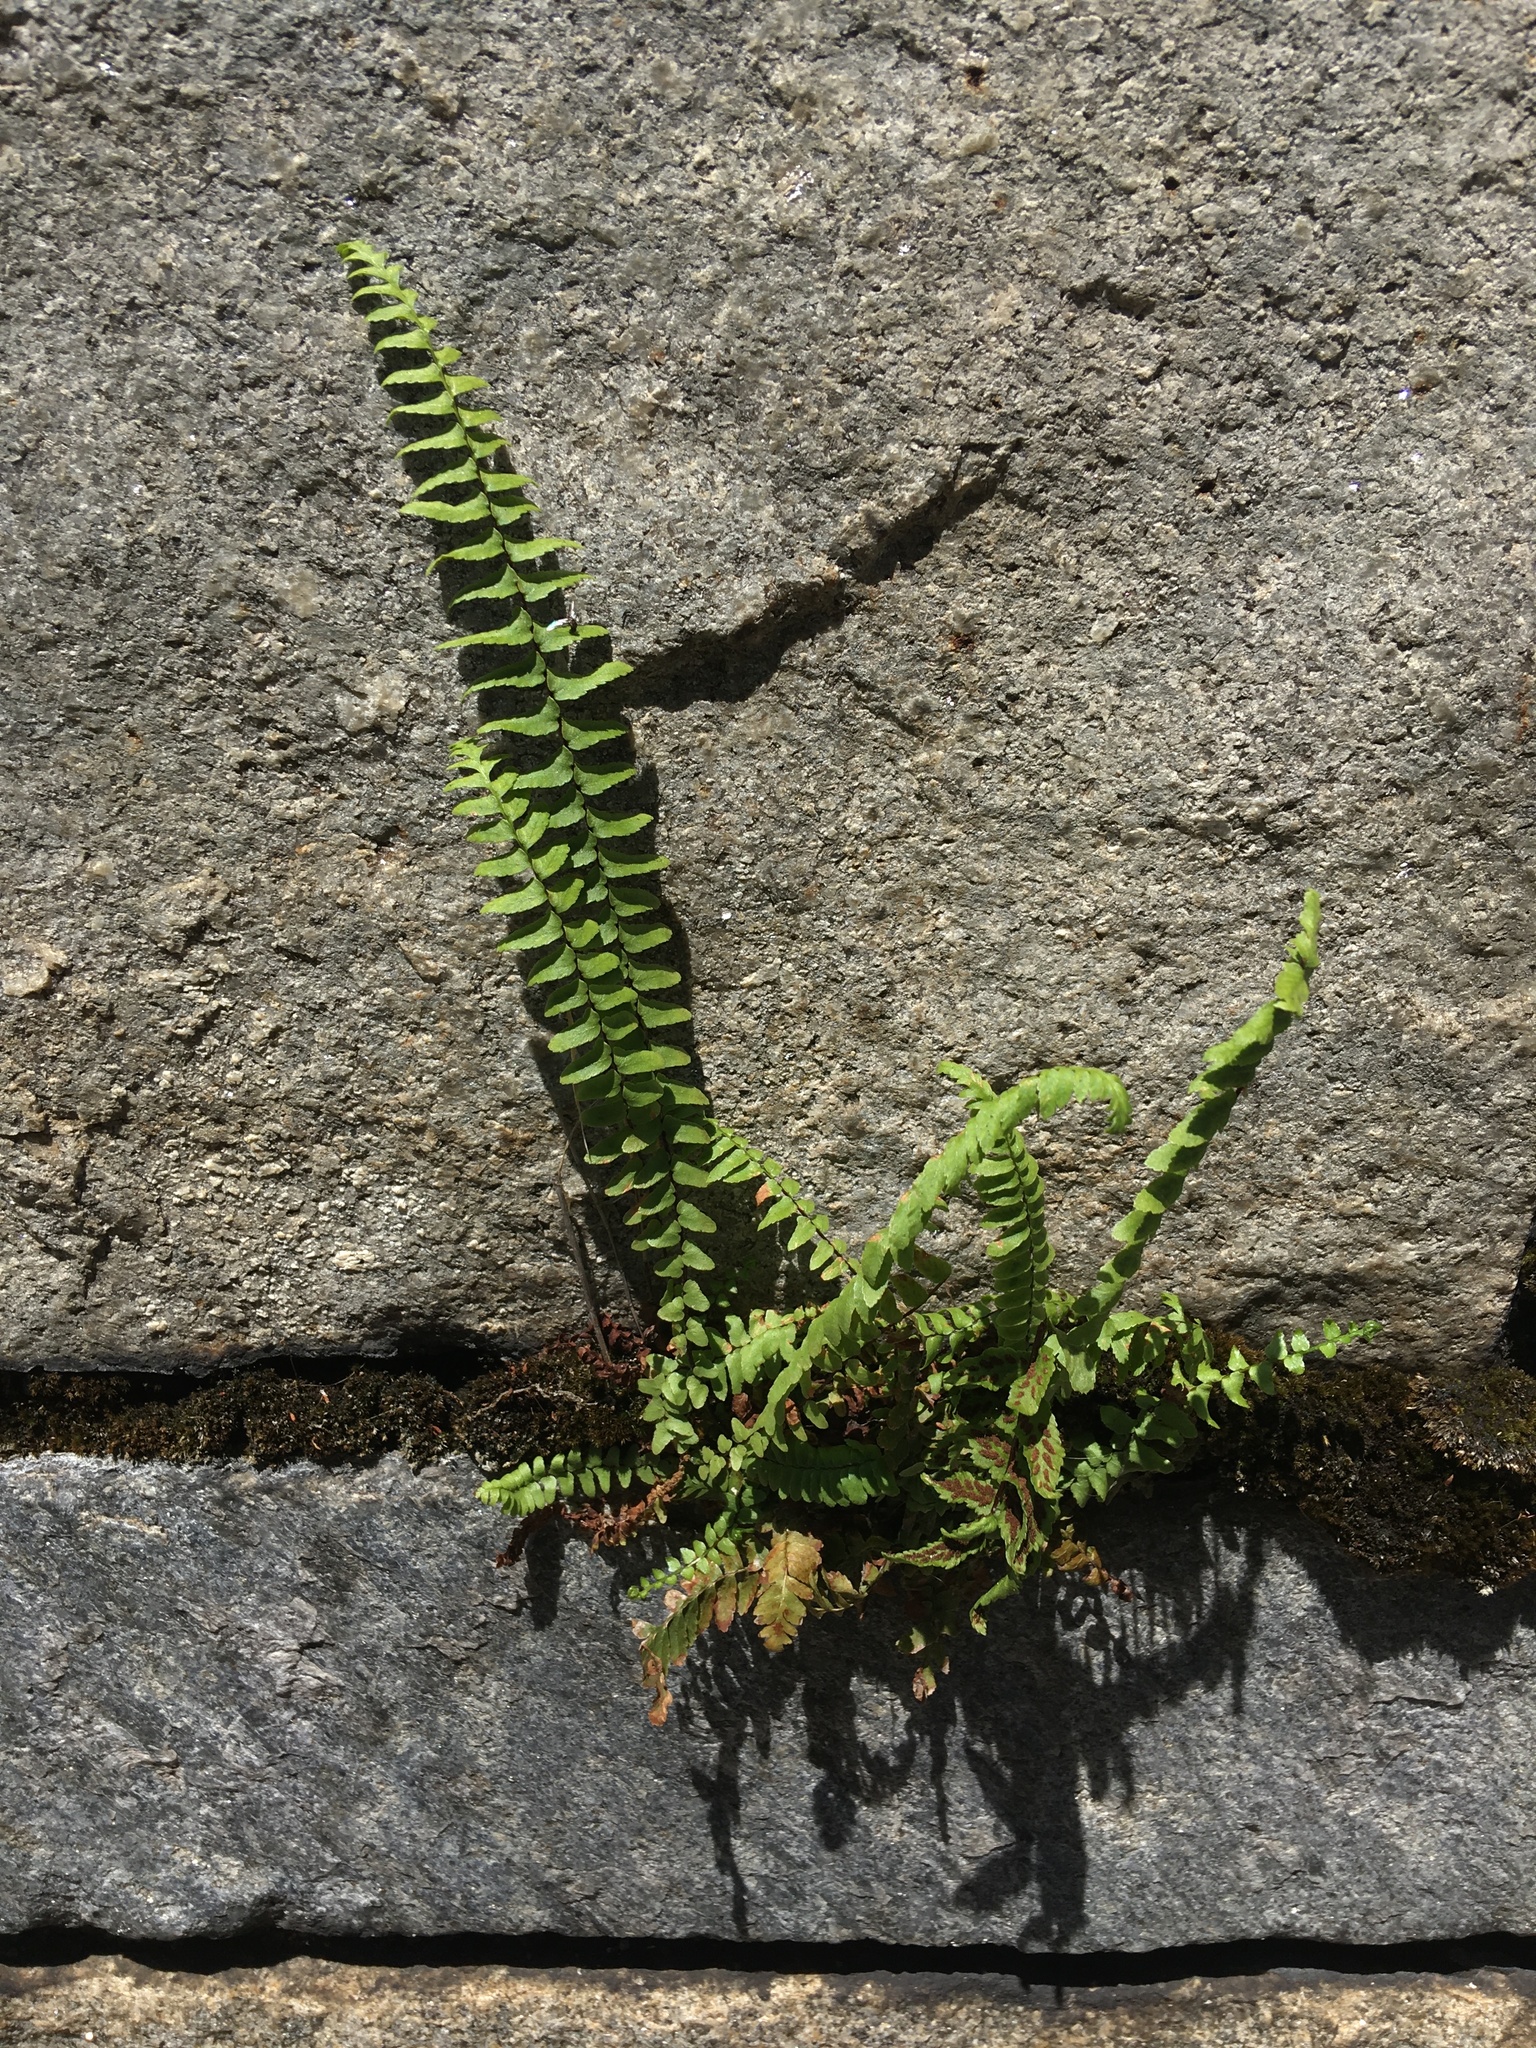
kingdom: Plantae
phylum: Tracheophyta
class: Polypodiopsida
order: Polypodiales
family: Aspleniaceae
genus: Asplenium
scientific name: Asplenium platyneuron
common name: Ebony spleenwort
